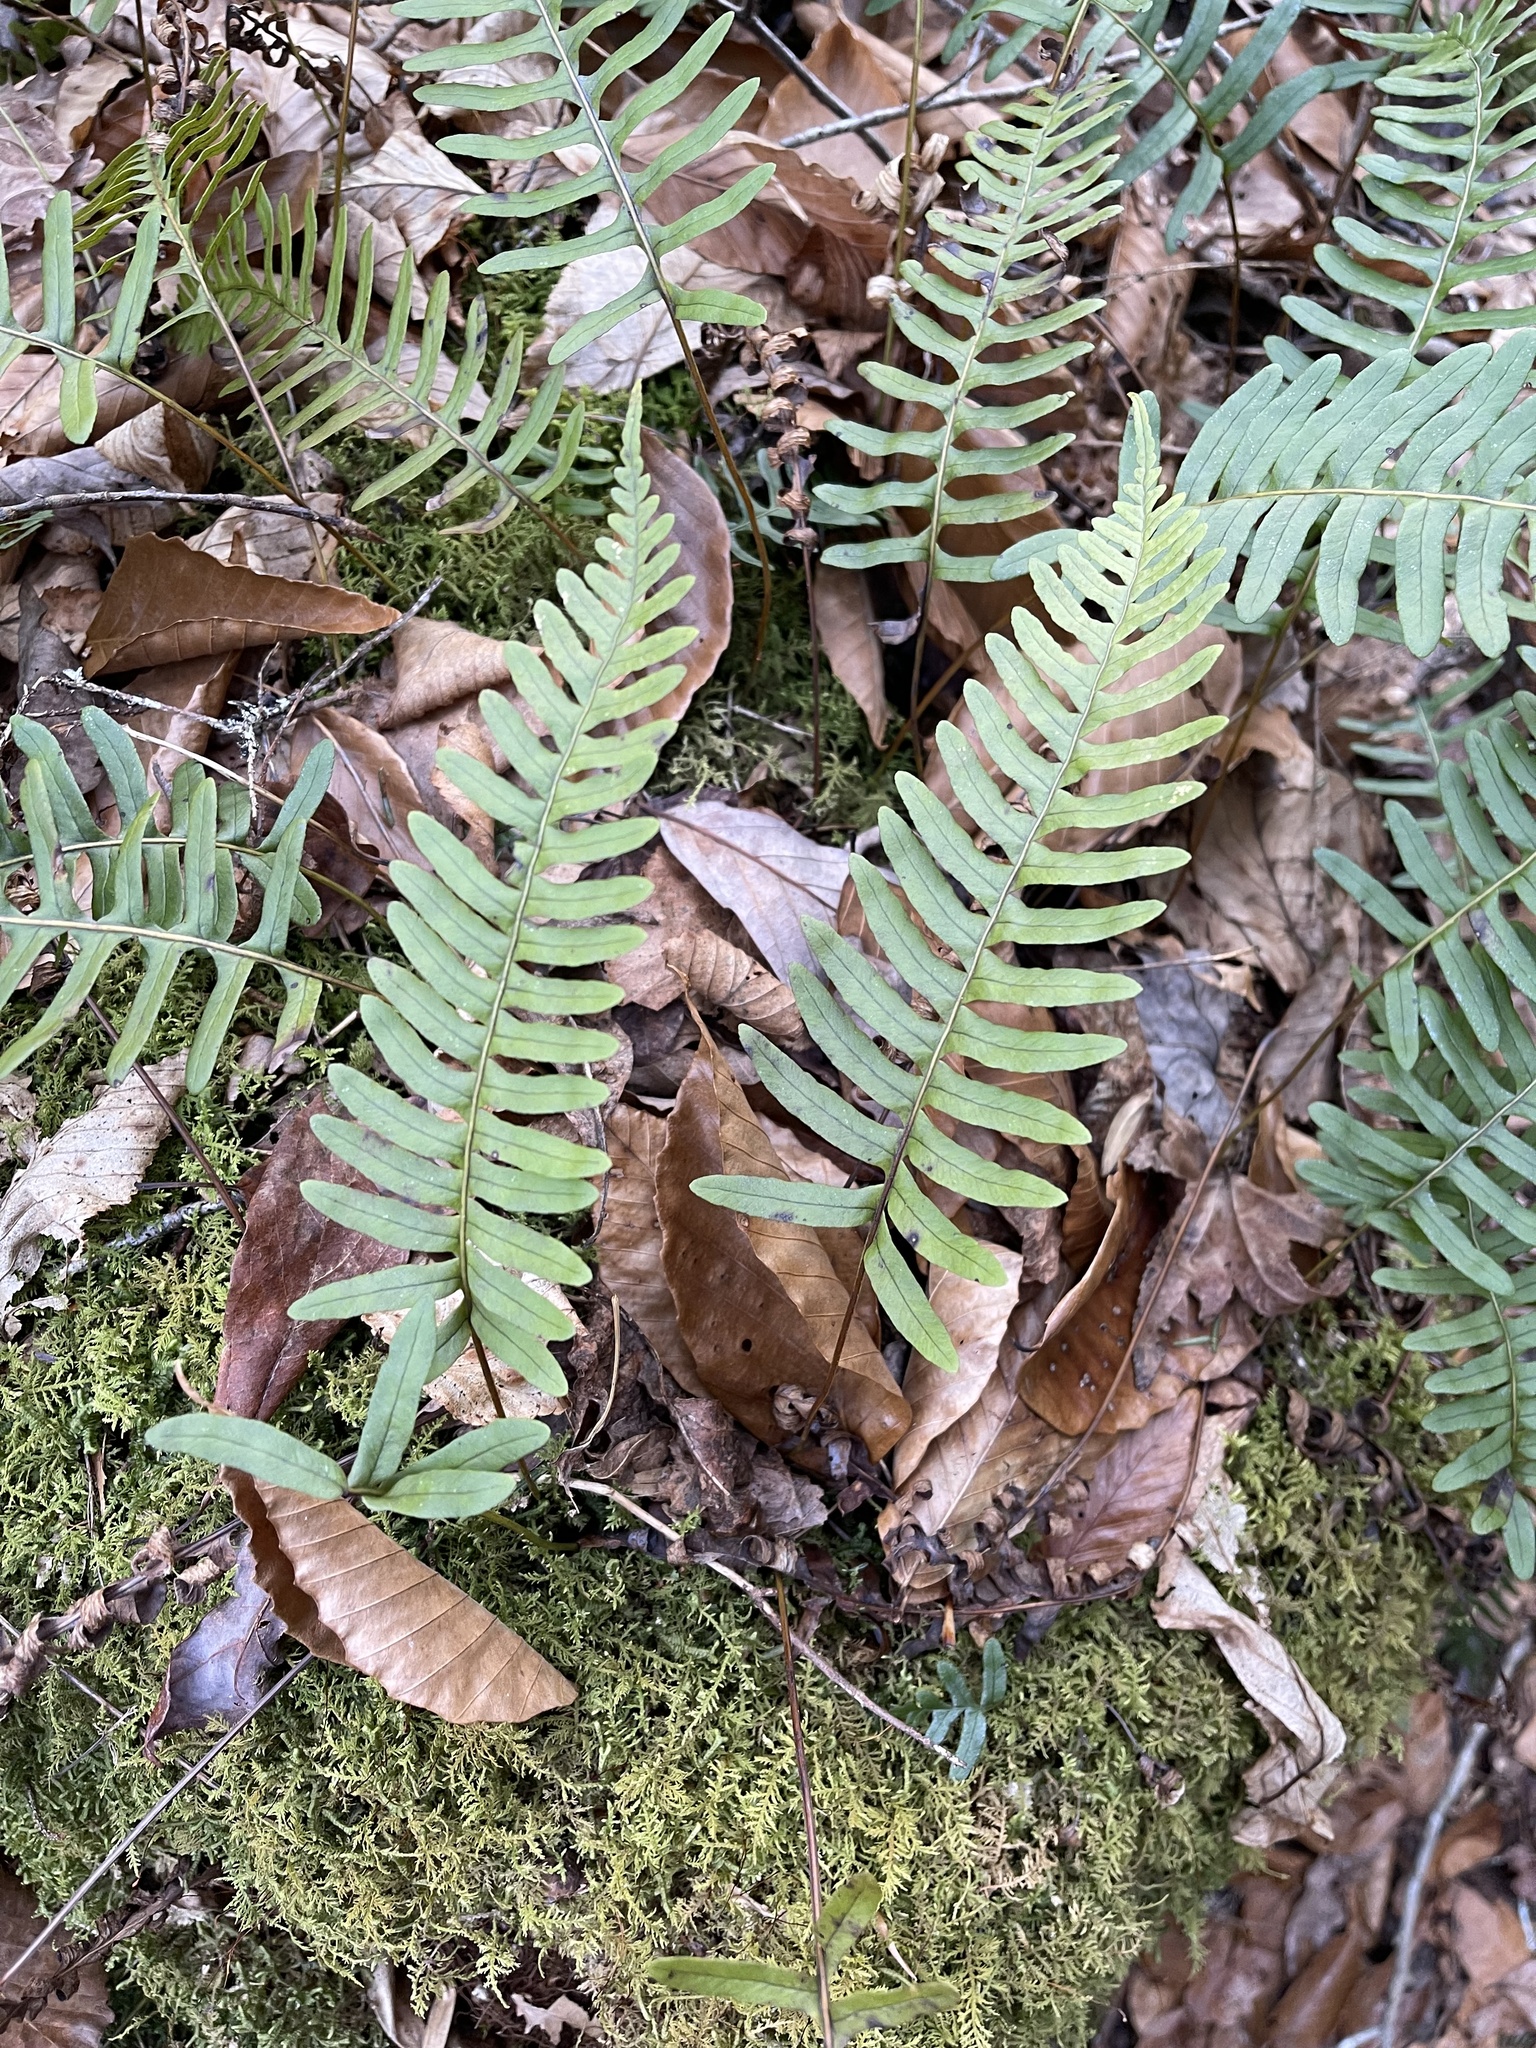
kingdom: Plantae
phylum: Tracheophyta
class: Polypodiopsida
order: Polypodiales
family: Polypodiaceae
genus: Polypodium
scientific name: Polypodium appalachianum
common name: Appalachian polypody
